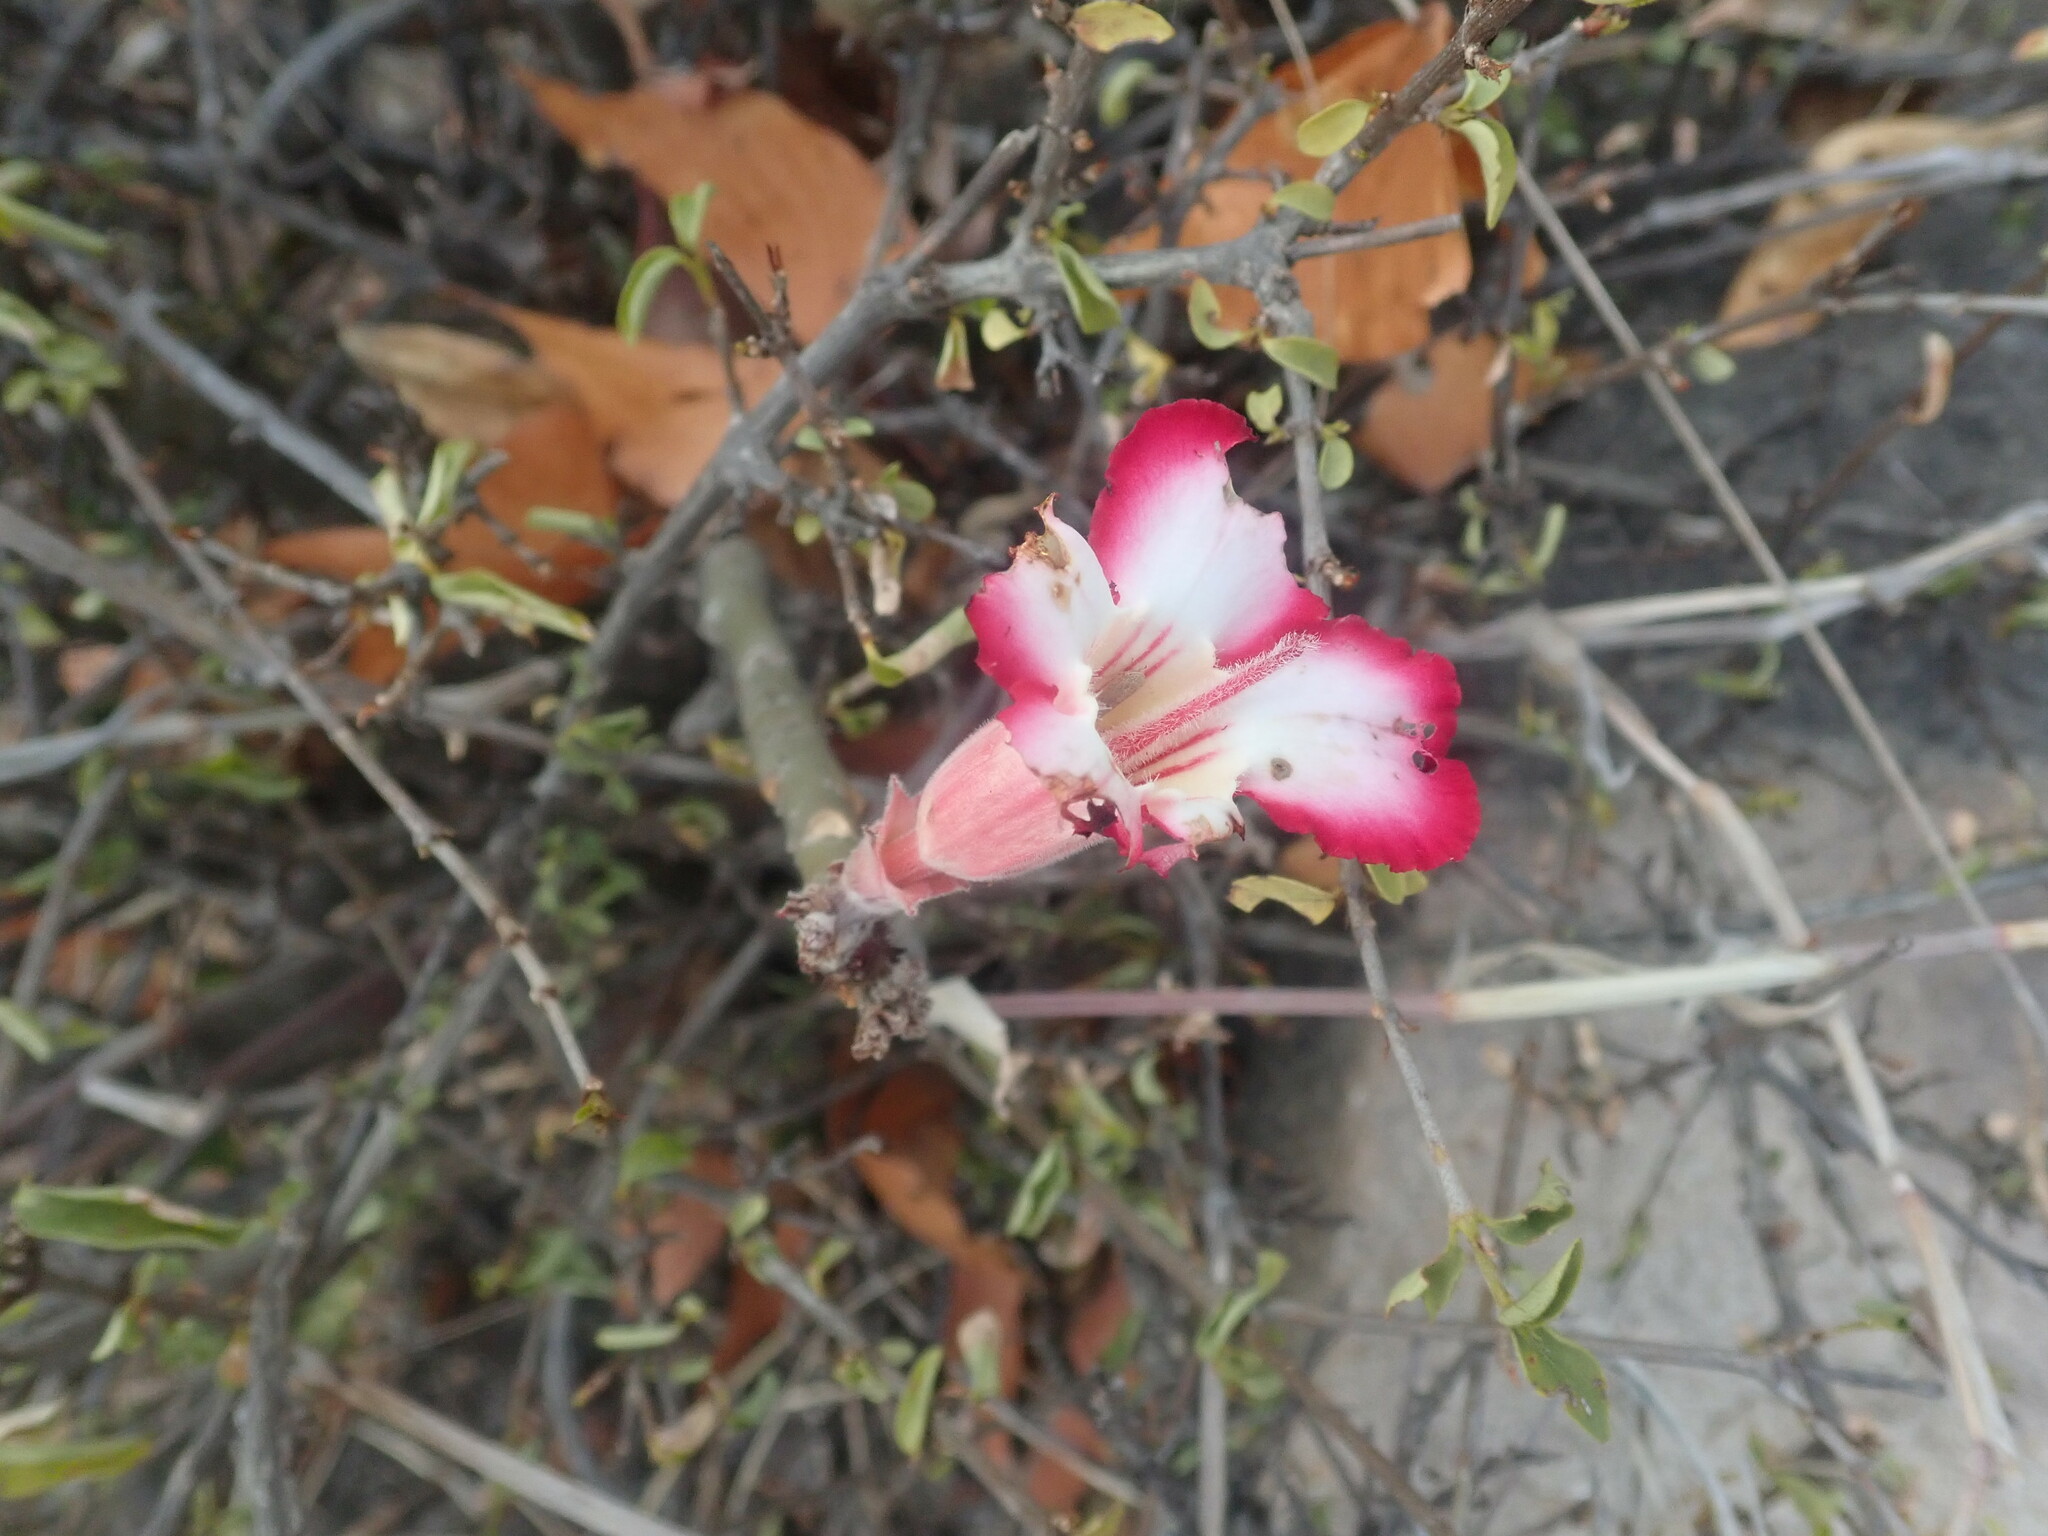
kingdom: Plantae
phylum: Tracheophyta
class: Magnoliopsida
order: Gentianales
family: Apocynaceae
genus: Adenium
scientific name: Adenium obesum
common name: Desert-rose
